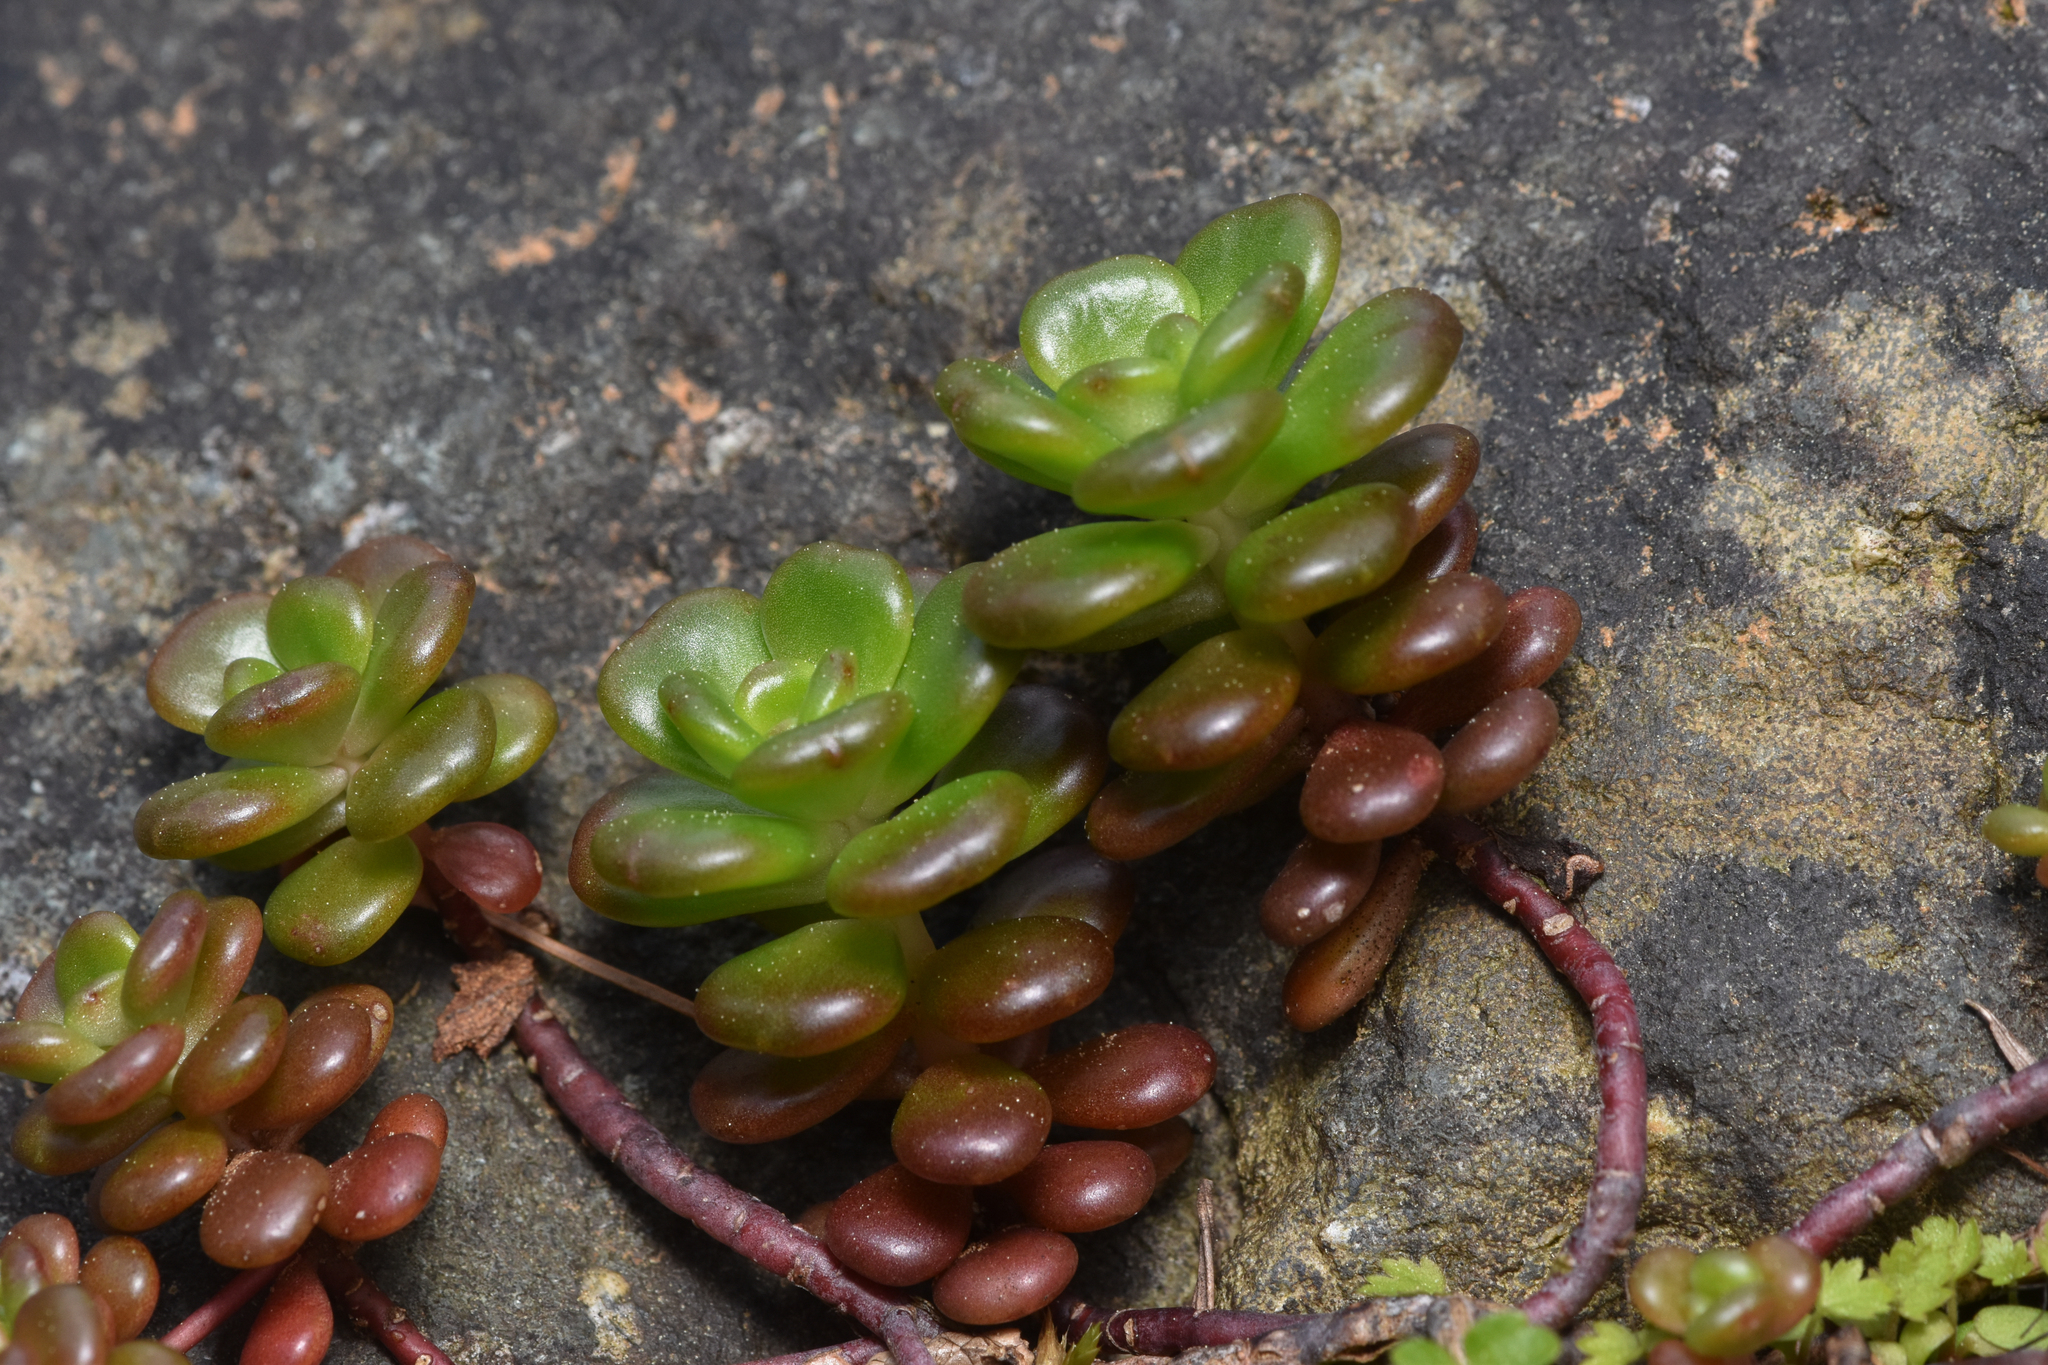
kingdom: Plantae
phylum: Tracheophyta
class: Magnoliopsida
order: Saxifragales
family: Crassulaceae
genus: Sedum
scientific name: Sedum oreganum
